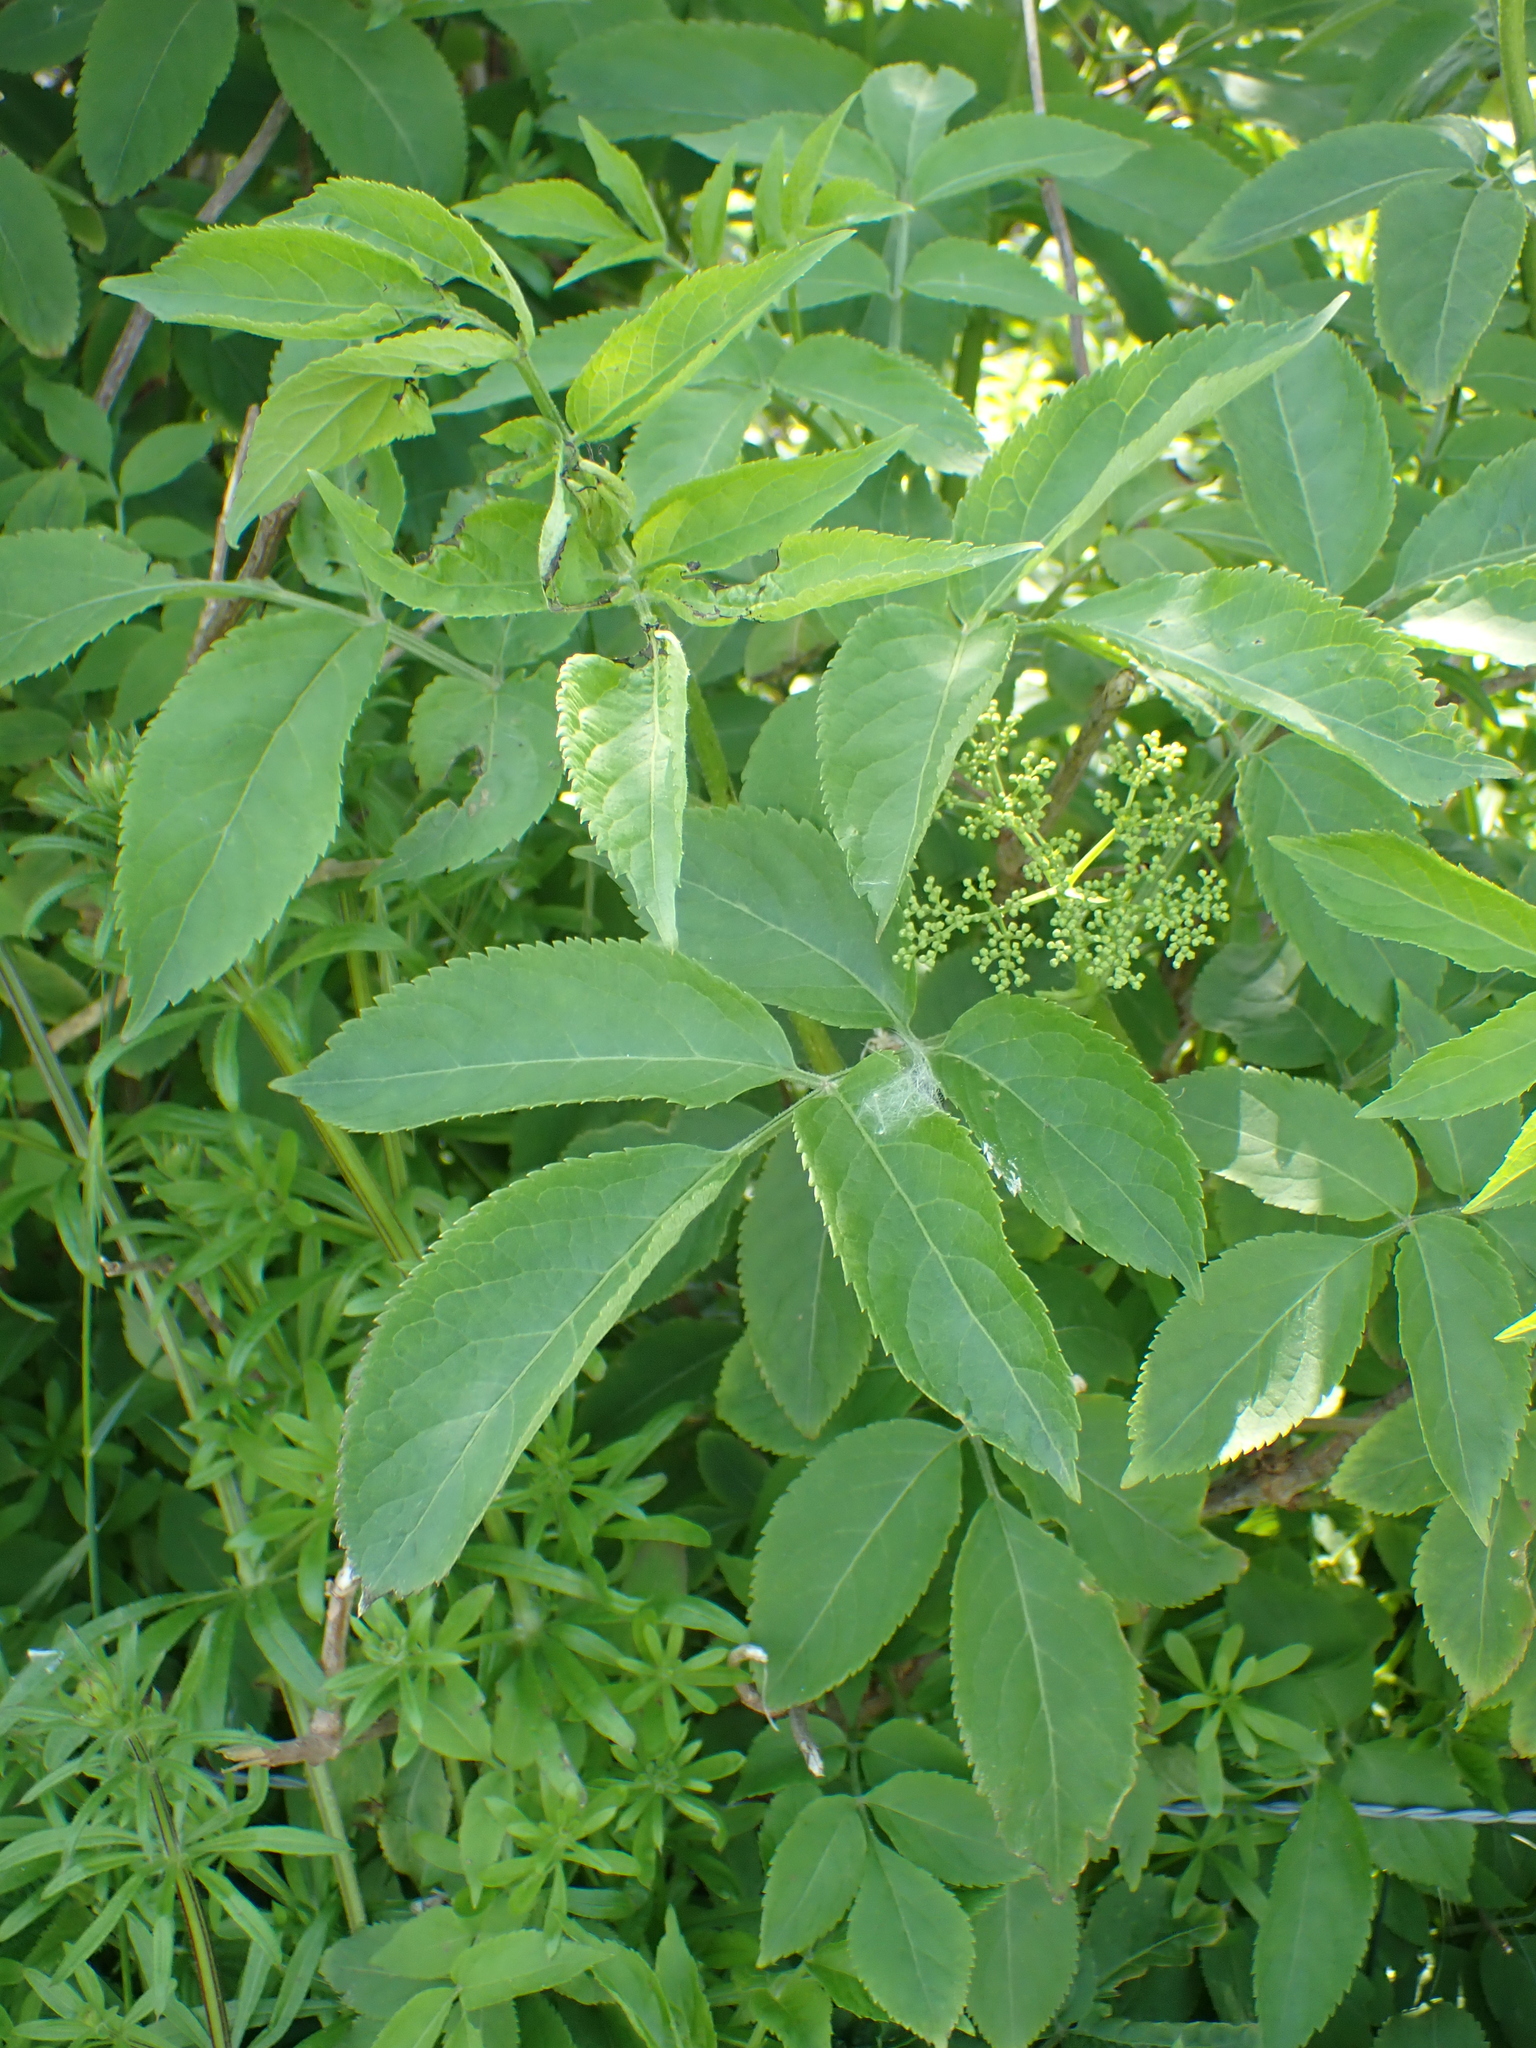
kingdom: Plantae
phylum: Tracheophyta
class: Magnoliopsida
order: Dipsacales
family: Viburnaceae
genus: Sambucus
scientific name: Sambucus nigra
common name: Elder
